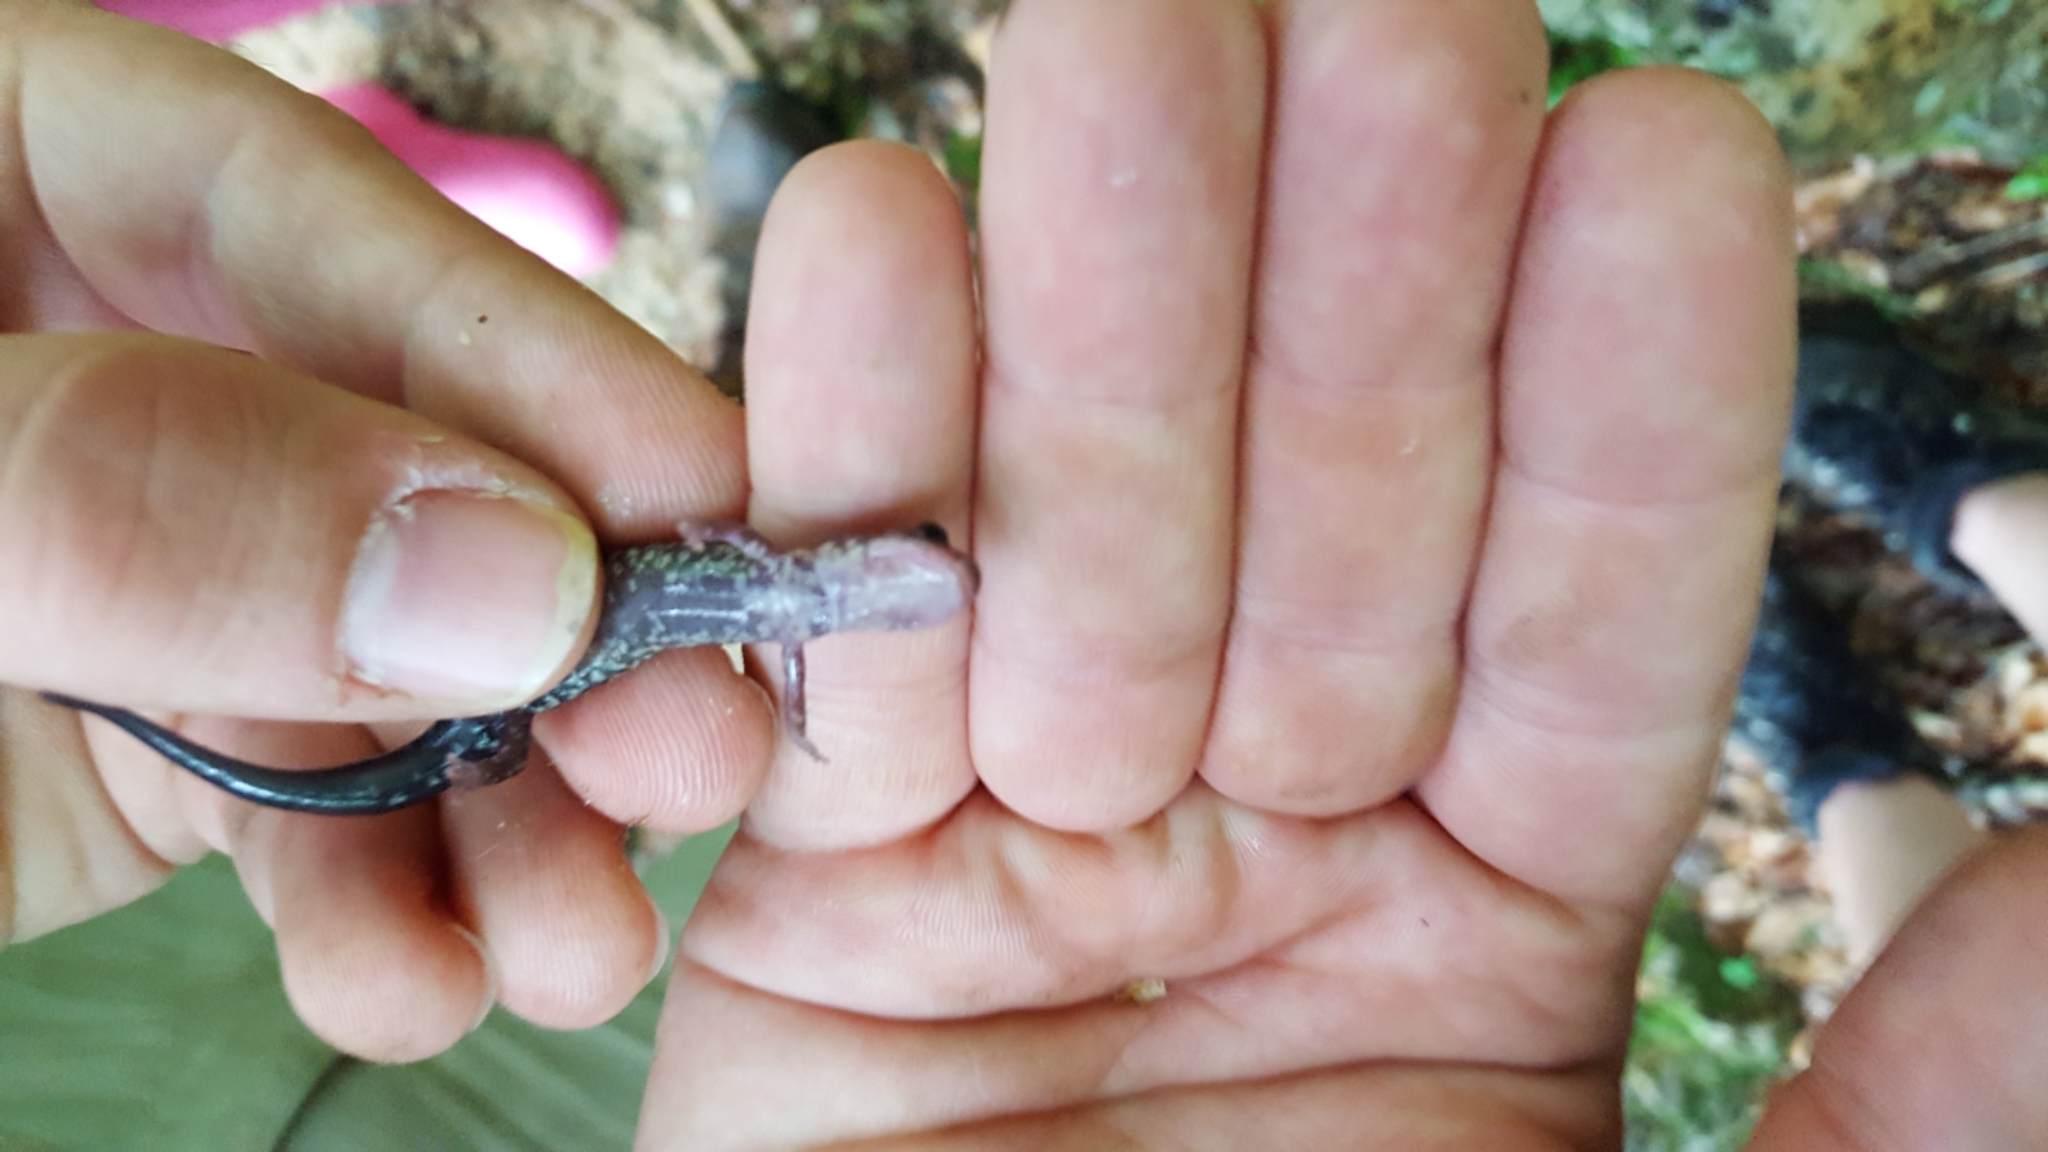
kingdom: Animalia
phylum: Chordata
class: Amphibia
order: Caudata
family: Plethodontidae
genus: Plethodon
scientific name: Plethodon caddoensis
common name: Caddo mountain salamander
